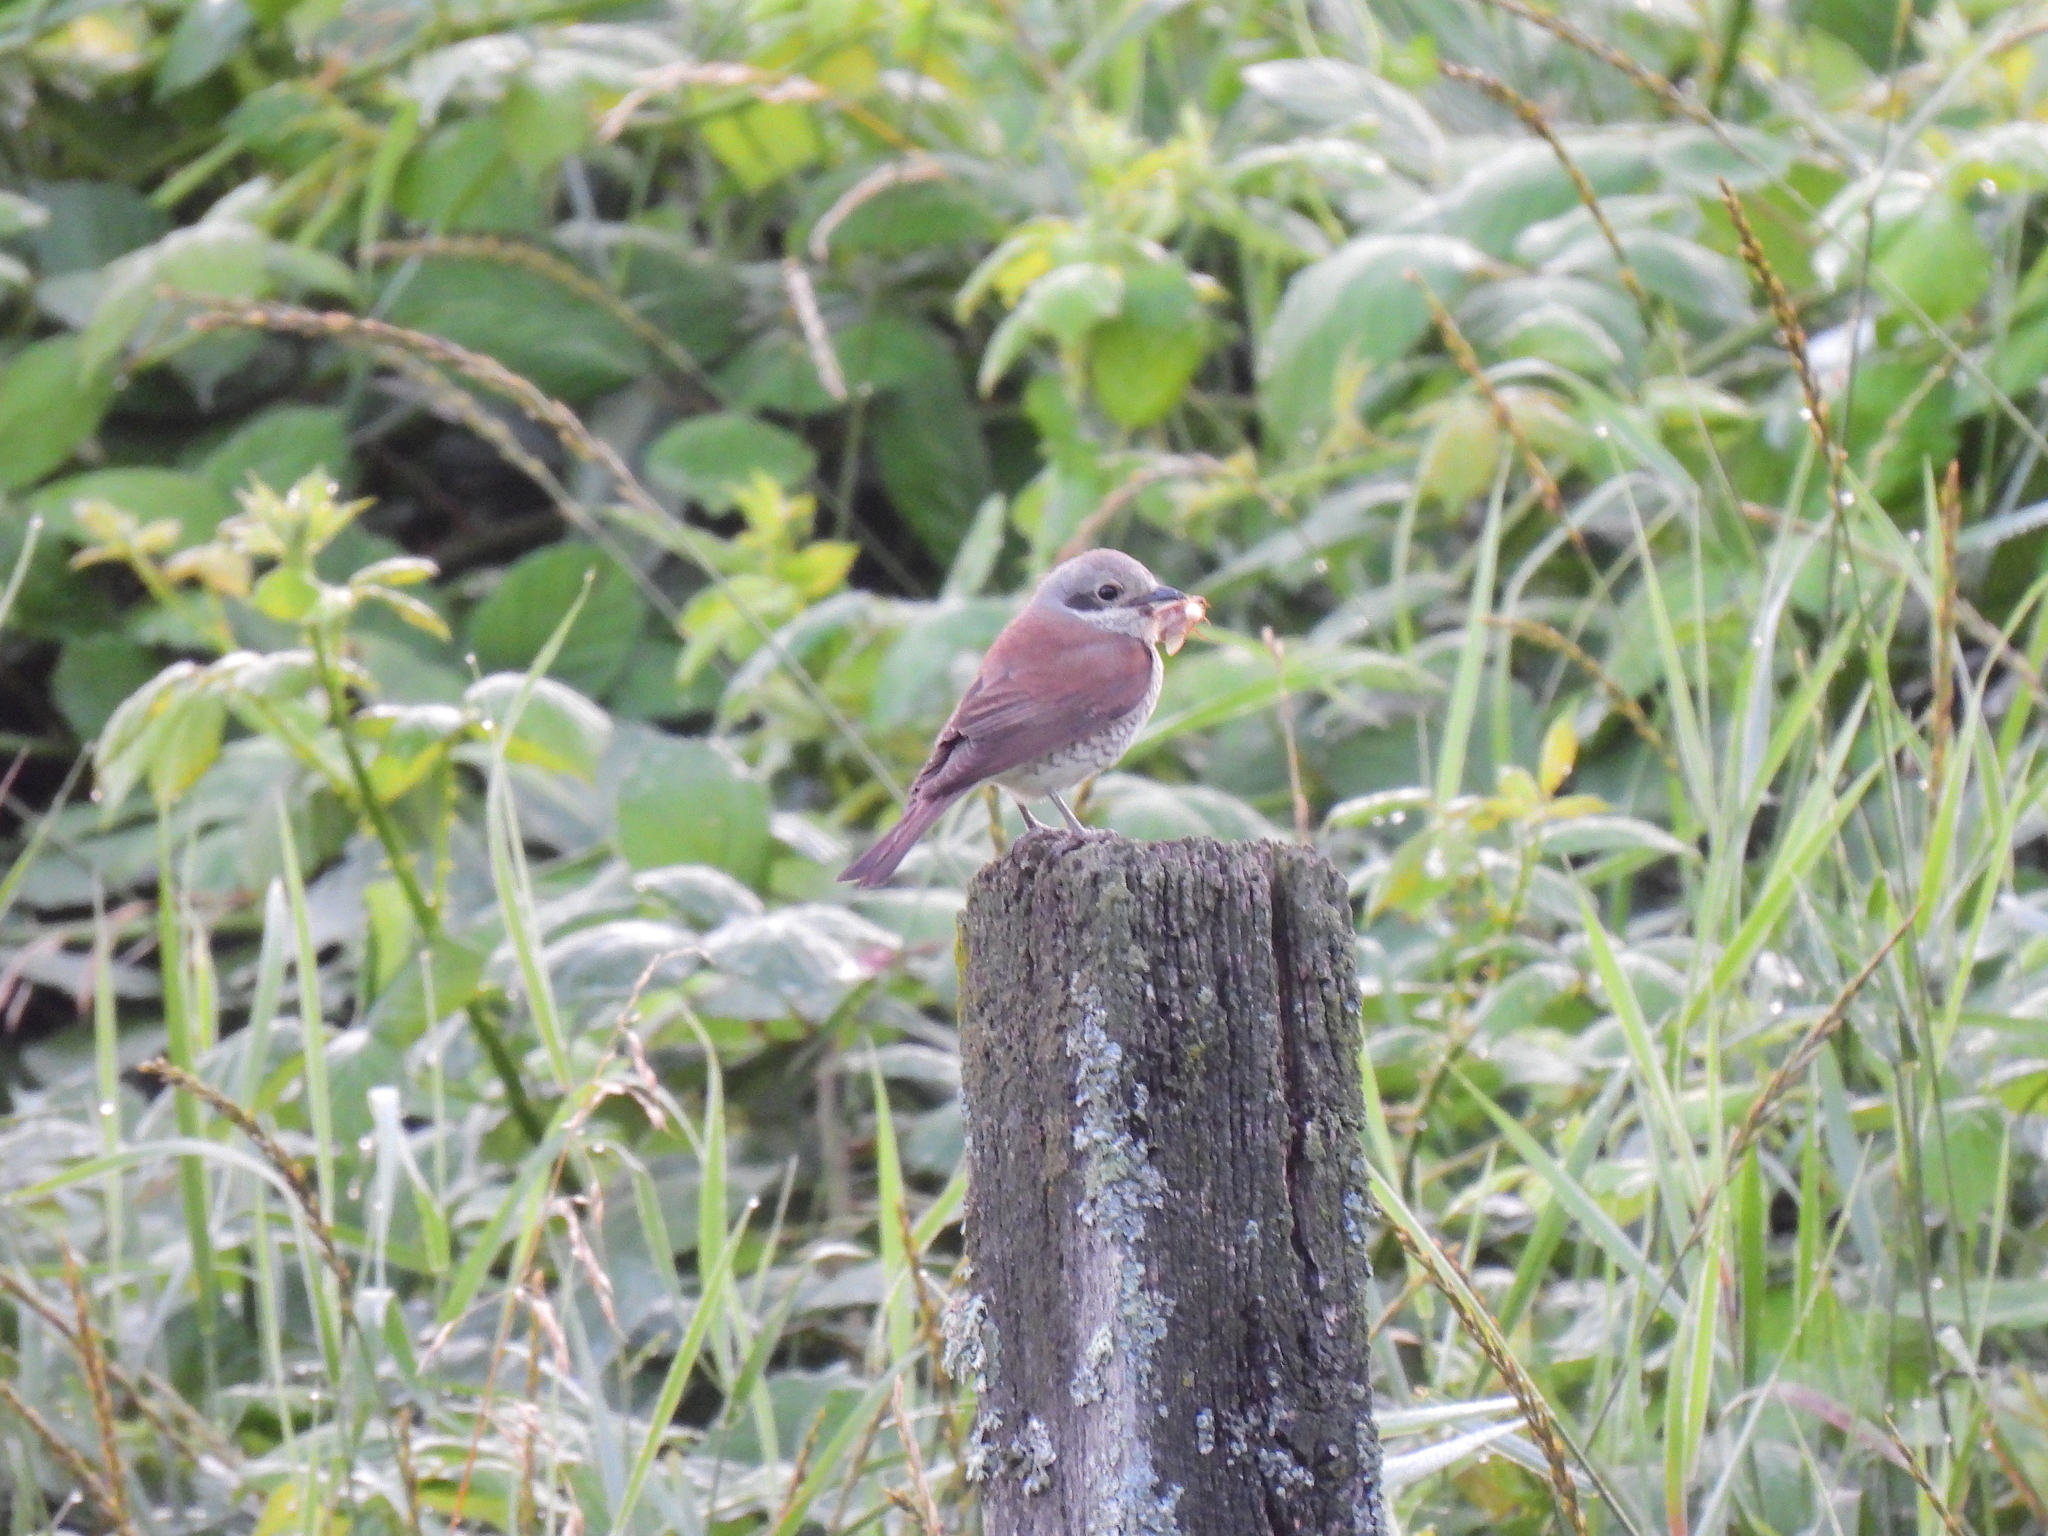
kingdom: Animalia
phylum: Chordata
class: Aves
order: Passeriformes
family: Laniidae
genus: Lanius
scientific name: Lanius collurio
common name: Red-backed shrike
